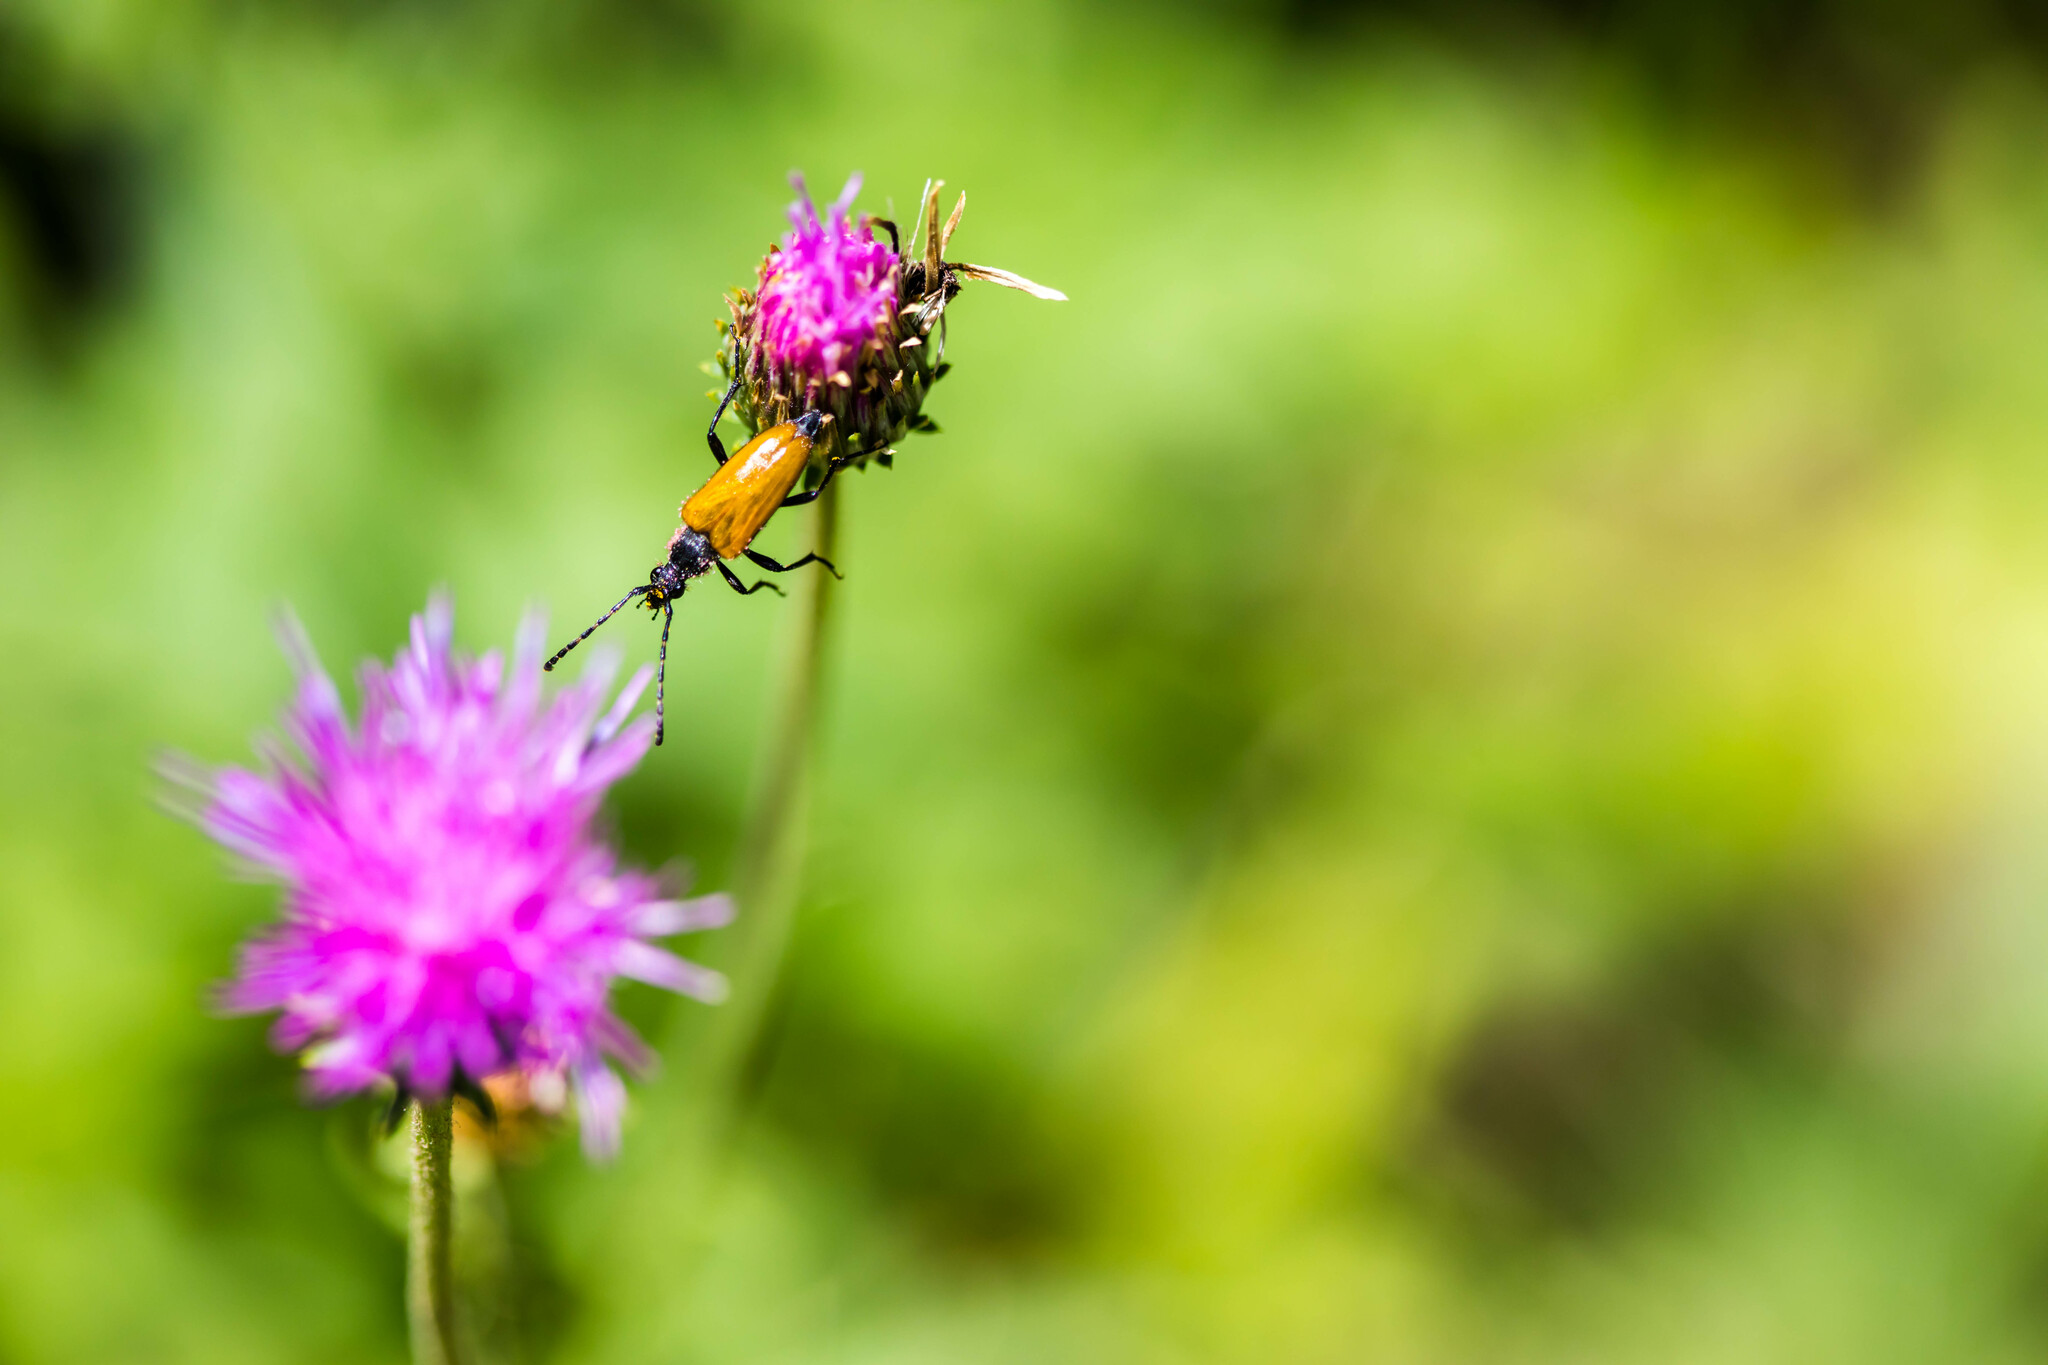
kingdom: Animalia
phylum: Arthropoda
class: Insecta
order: Coleoptera
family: Cerambycidae
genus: Paracorymbia
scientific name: Paracorymbia hybrida
